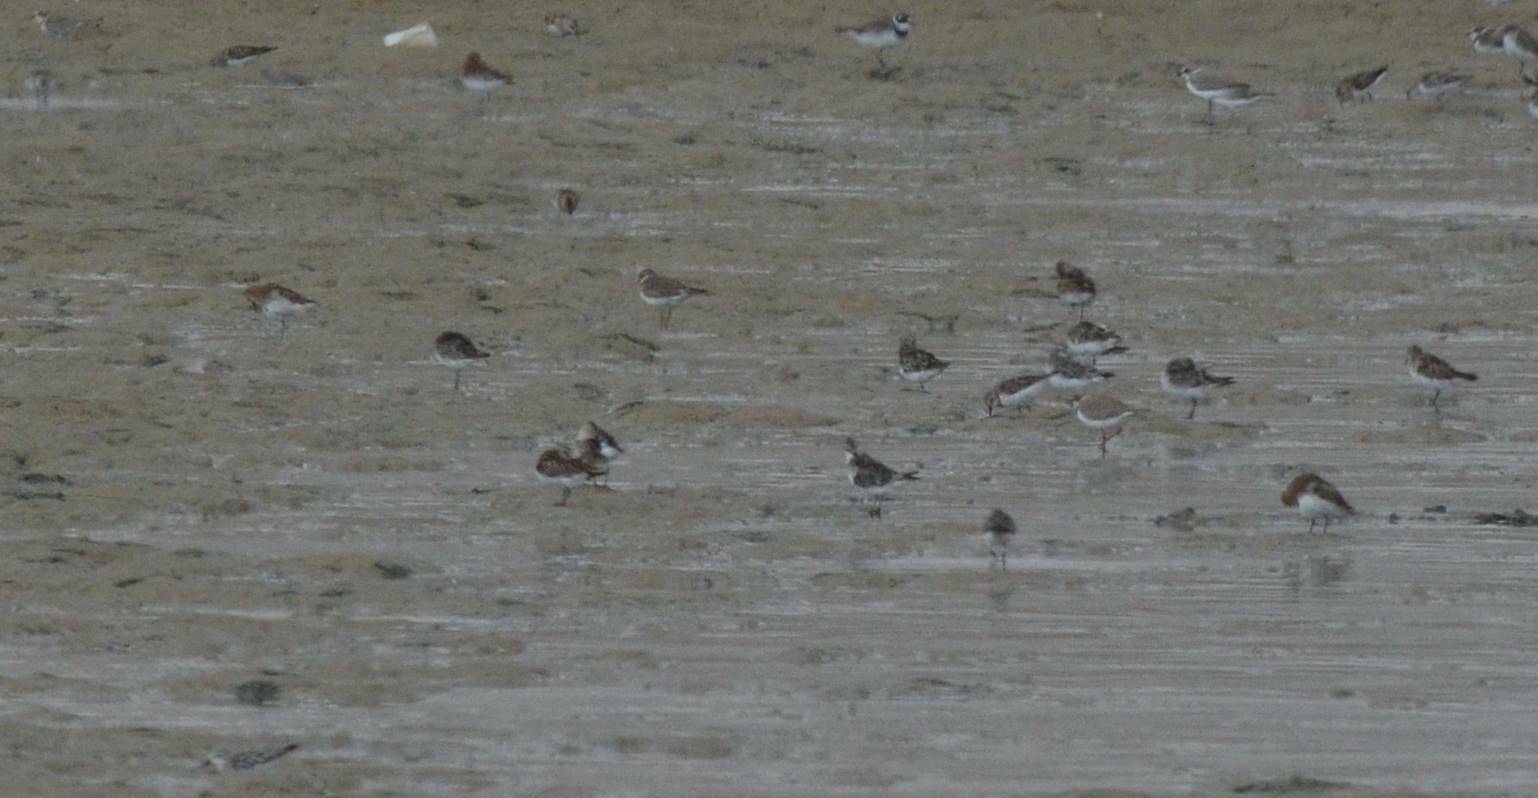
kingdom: Animalia
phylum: Chordata
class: Aves
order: Charadriiformes
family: Charadriidae
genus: Charadrius
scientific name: Charadrius dubius
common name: Little ringed plover
